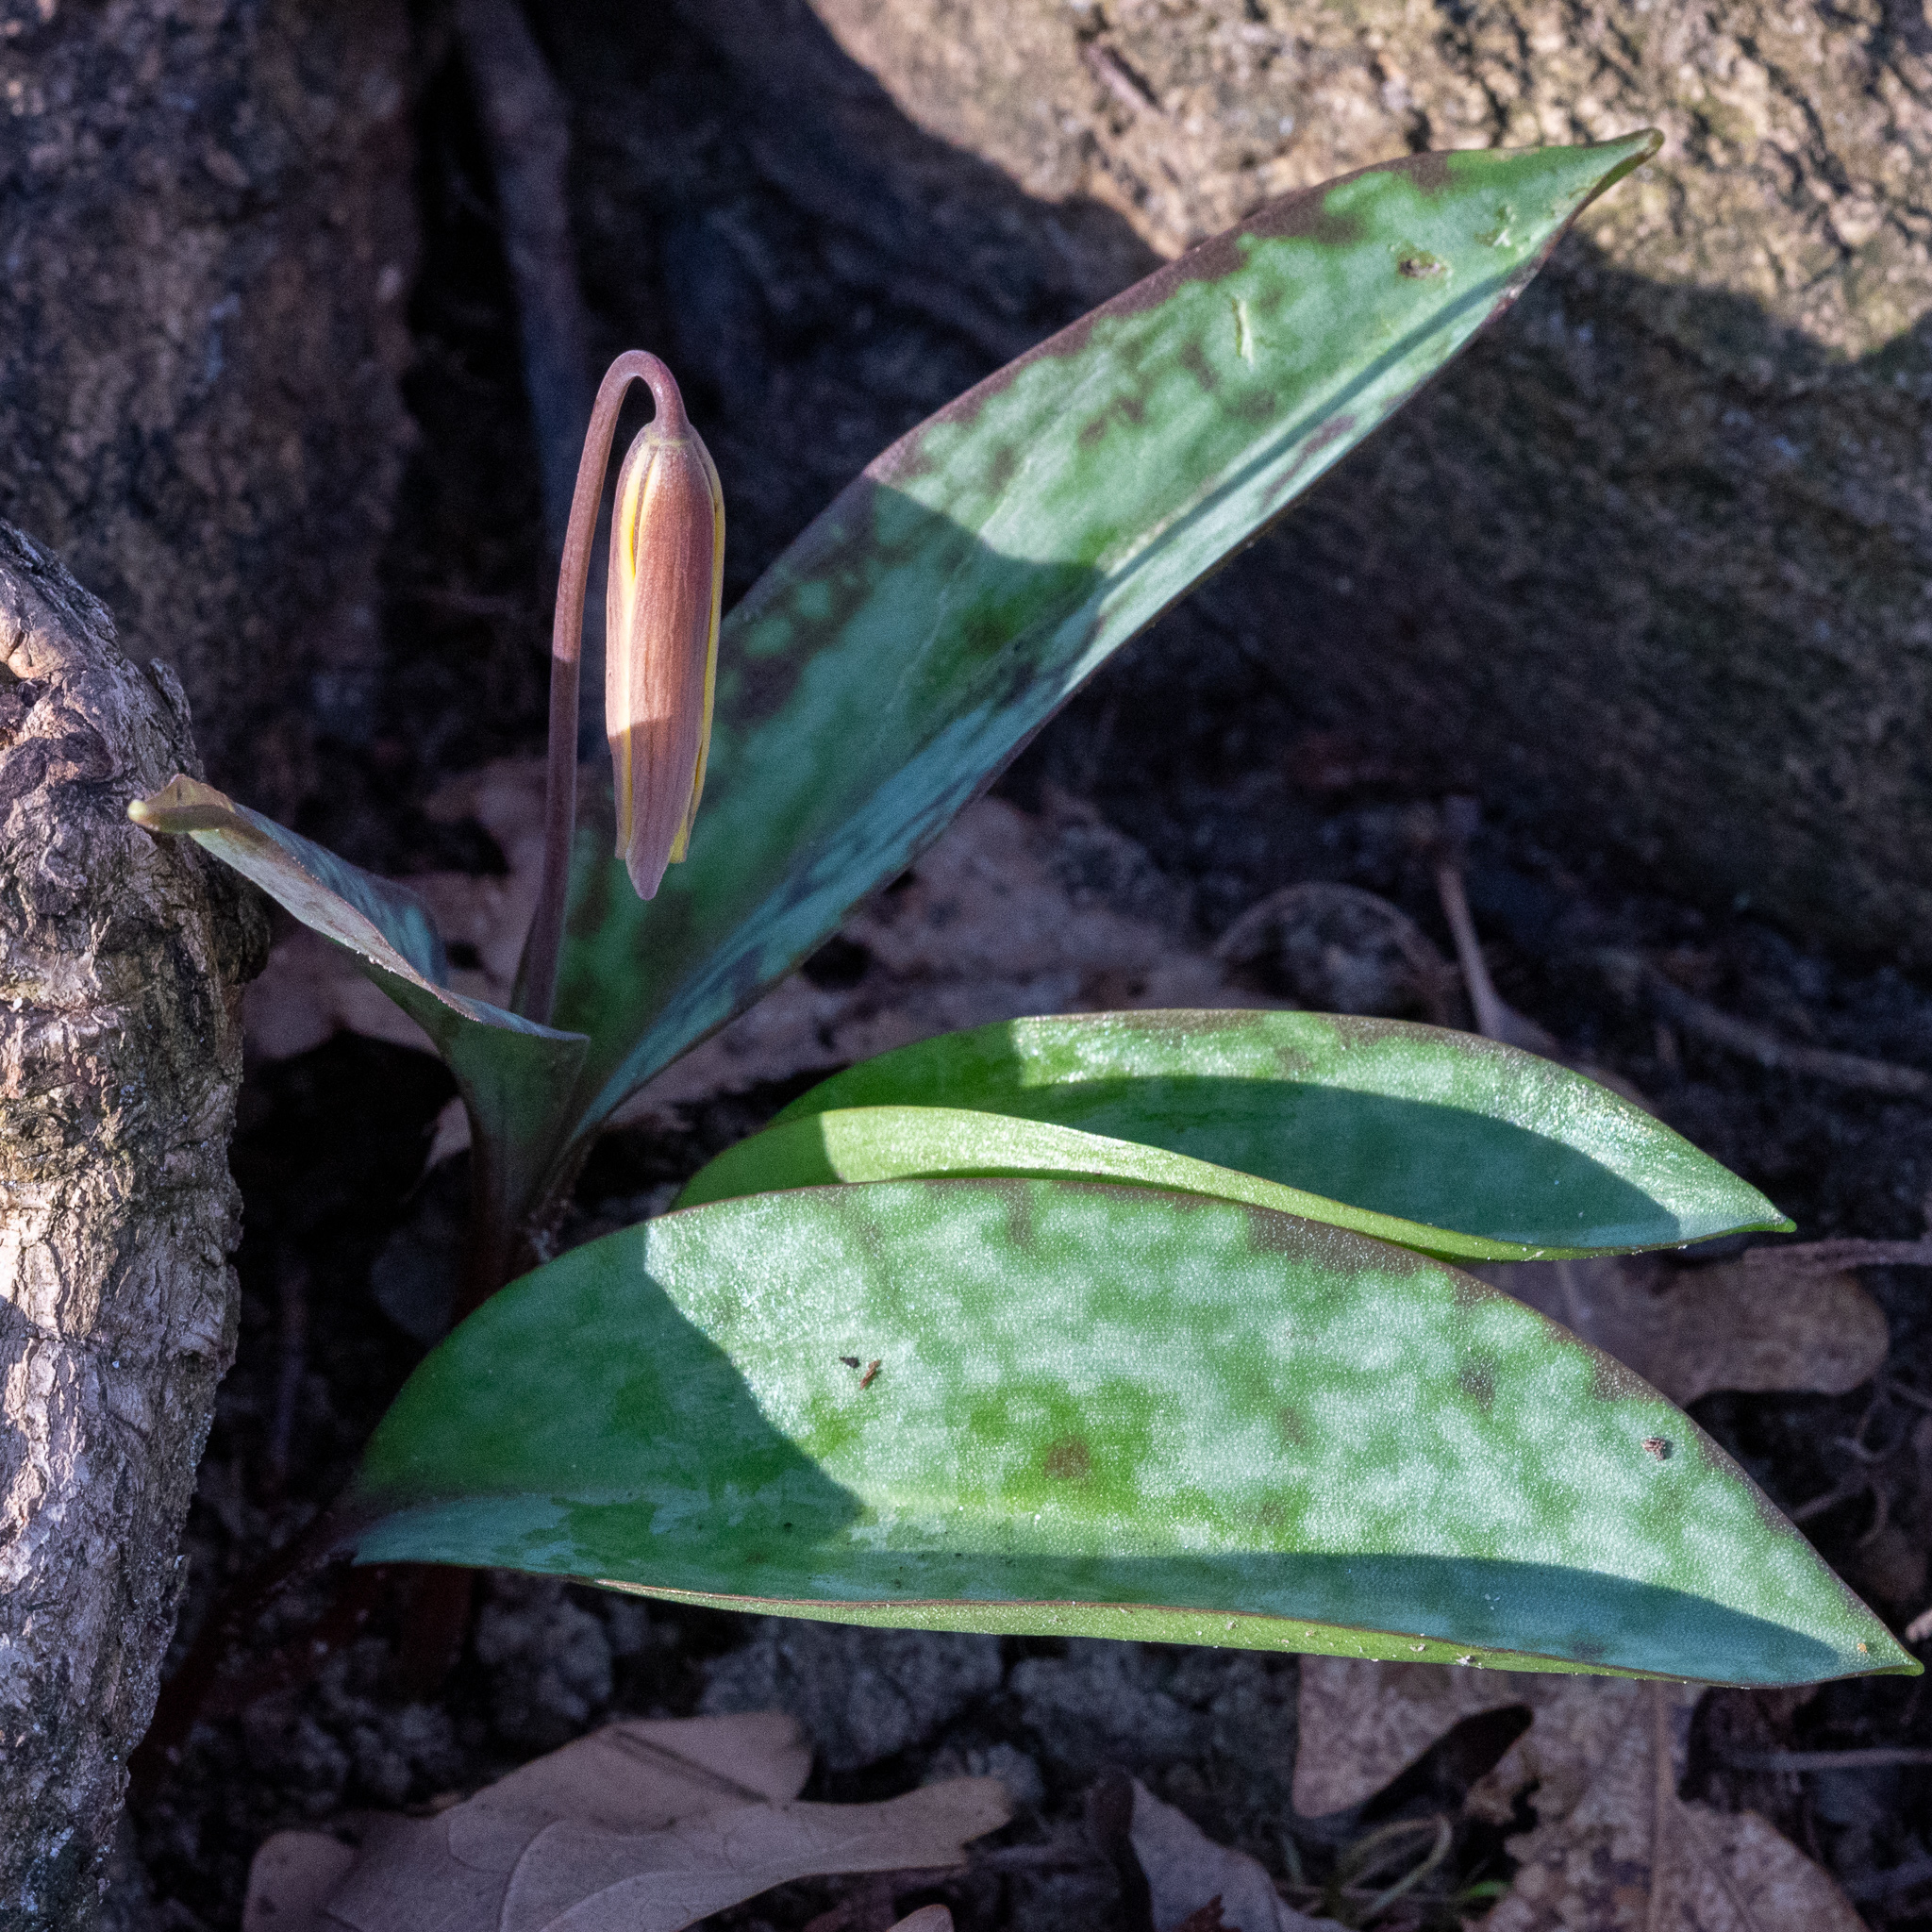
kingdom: Plantae
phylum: Tracheophyta
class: Liliopsida
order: Liliales
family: Liliaceae
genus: Erythronium
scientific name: Erythronium americanum
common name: Yellow adder's-tongue
